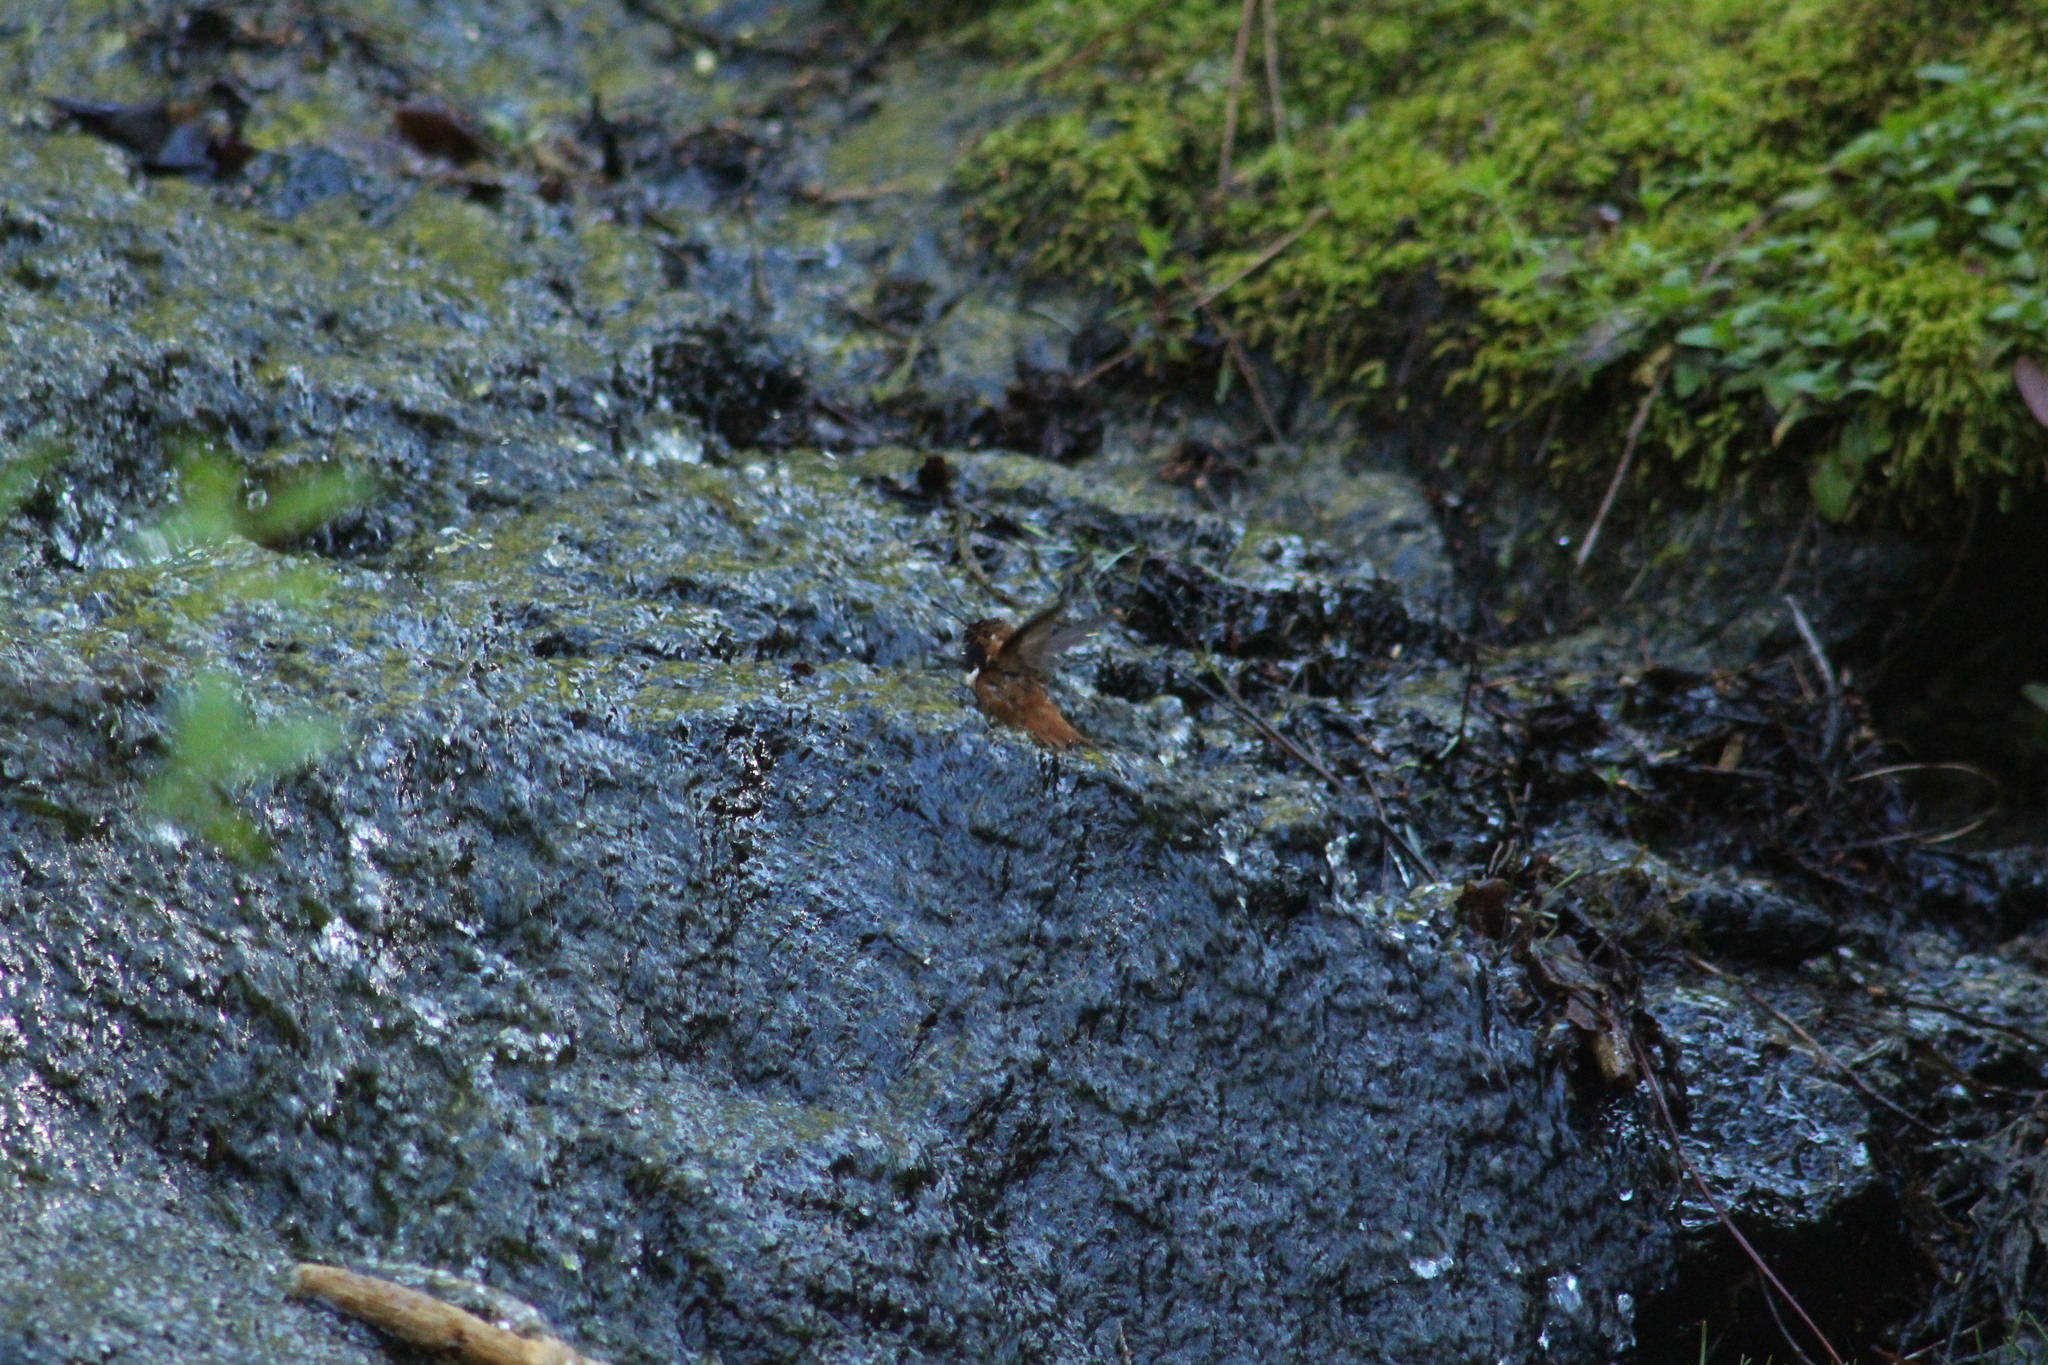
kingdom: Animalia
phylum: Chordata
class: Aves
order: Apodiformes
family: Trochilidae
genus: Selasphorus
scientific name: Selasphorus rufus
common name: Rufous hummingbird
